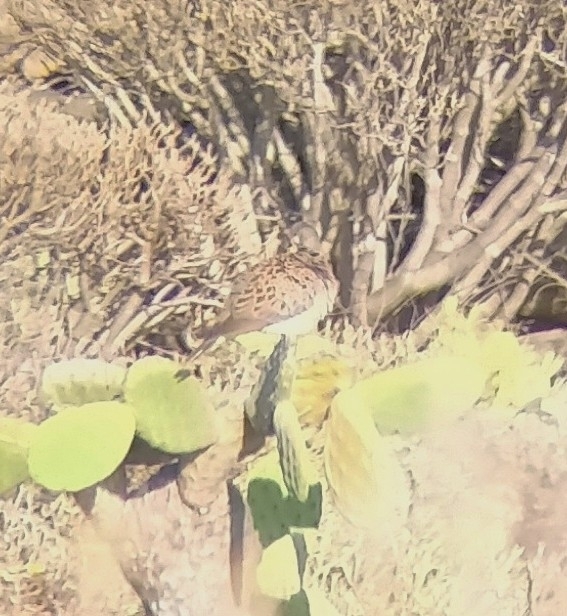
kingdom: Animalia
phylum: Chordata
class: Aves
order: Columbiformes
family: Columbidae
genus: Streptopelia
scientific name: Streptopelia turtur
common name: European turtle dove
